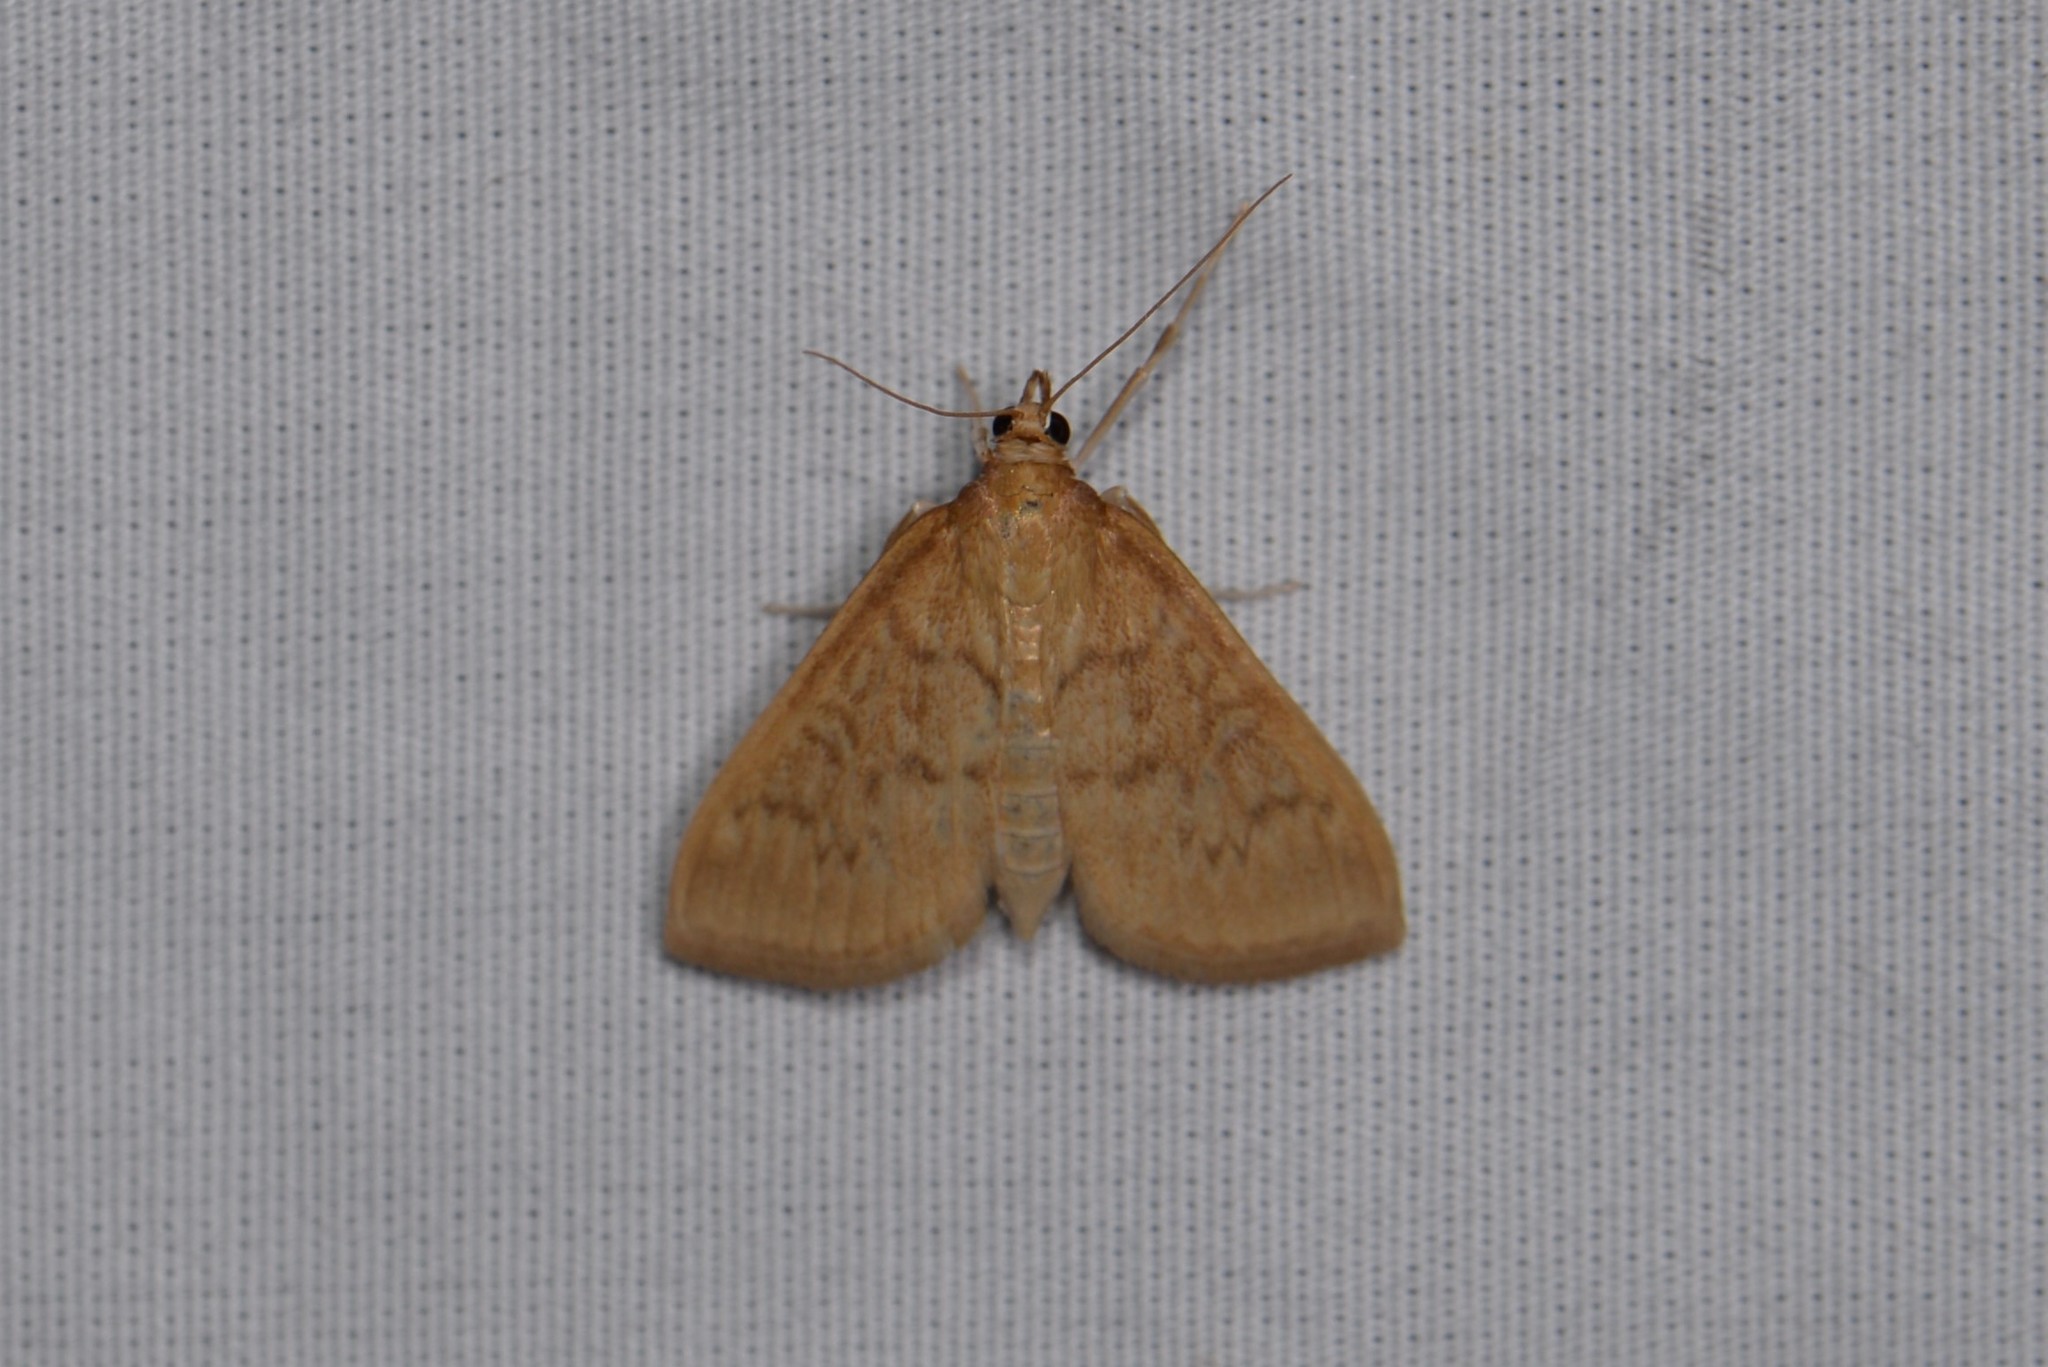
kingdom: Animalia
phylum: Arthropoda
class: Insecta
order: Lepidoptera
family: Crambidae
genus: Anania
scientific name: Anania Framinghamia helvalis
